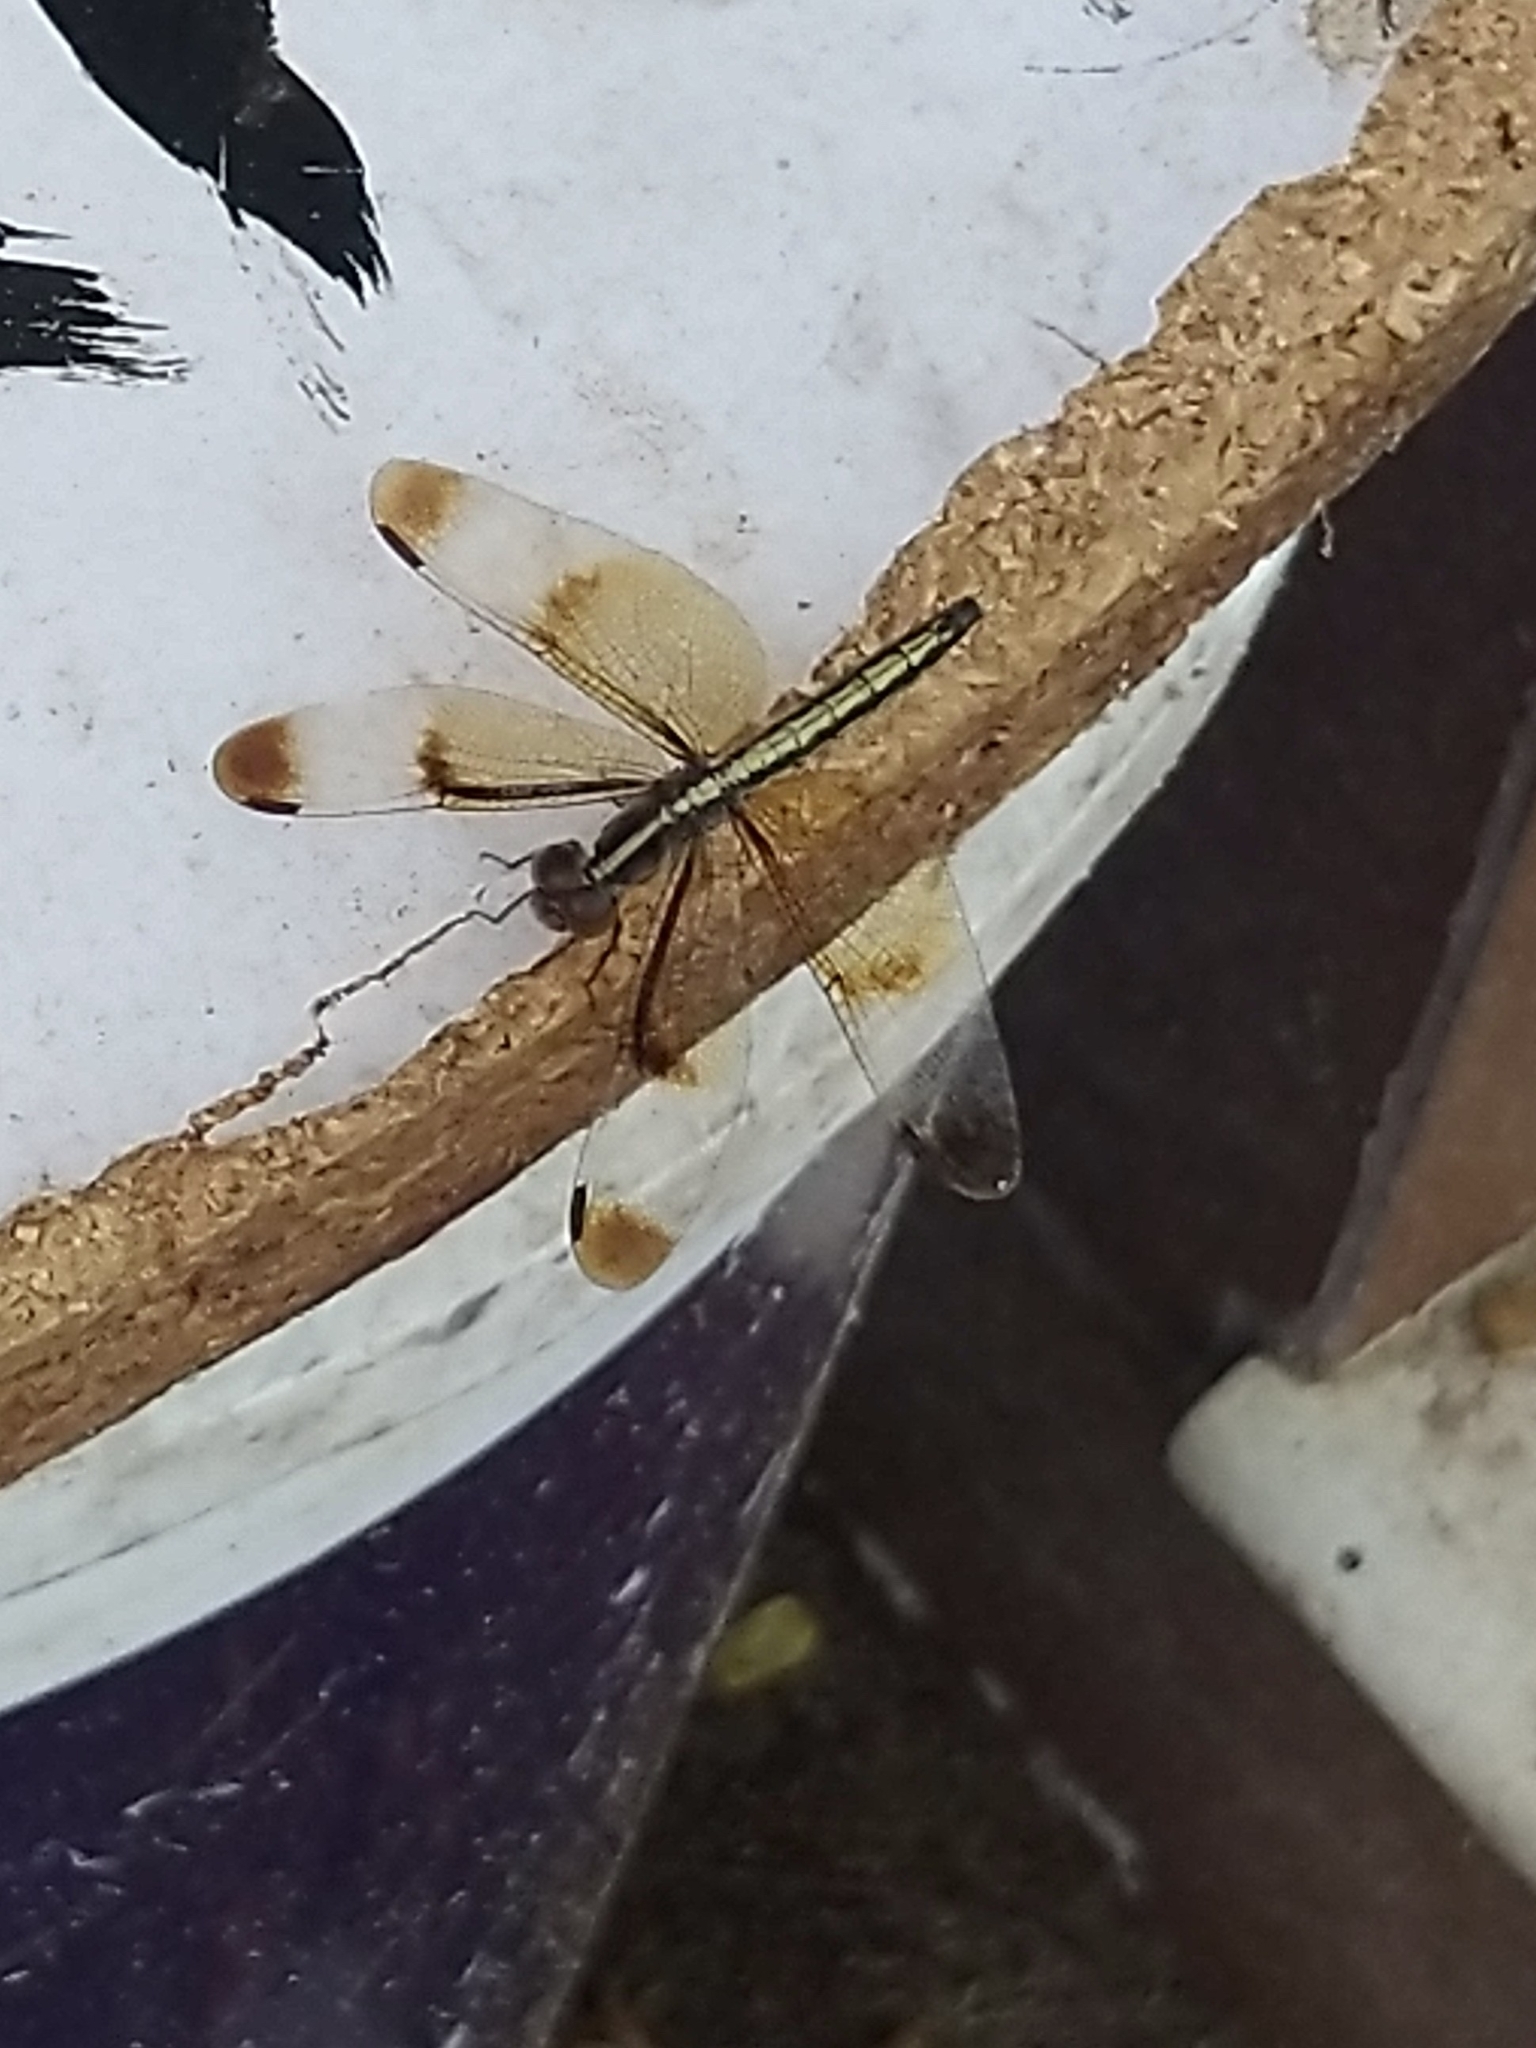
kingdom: Animalia
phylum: Arthropoda
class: Insecta
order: Odonata
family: Libellulidae
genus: Neurothemis
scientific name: Neurothemis tullia
